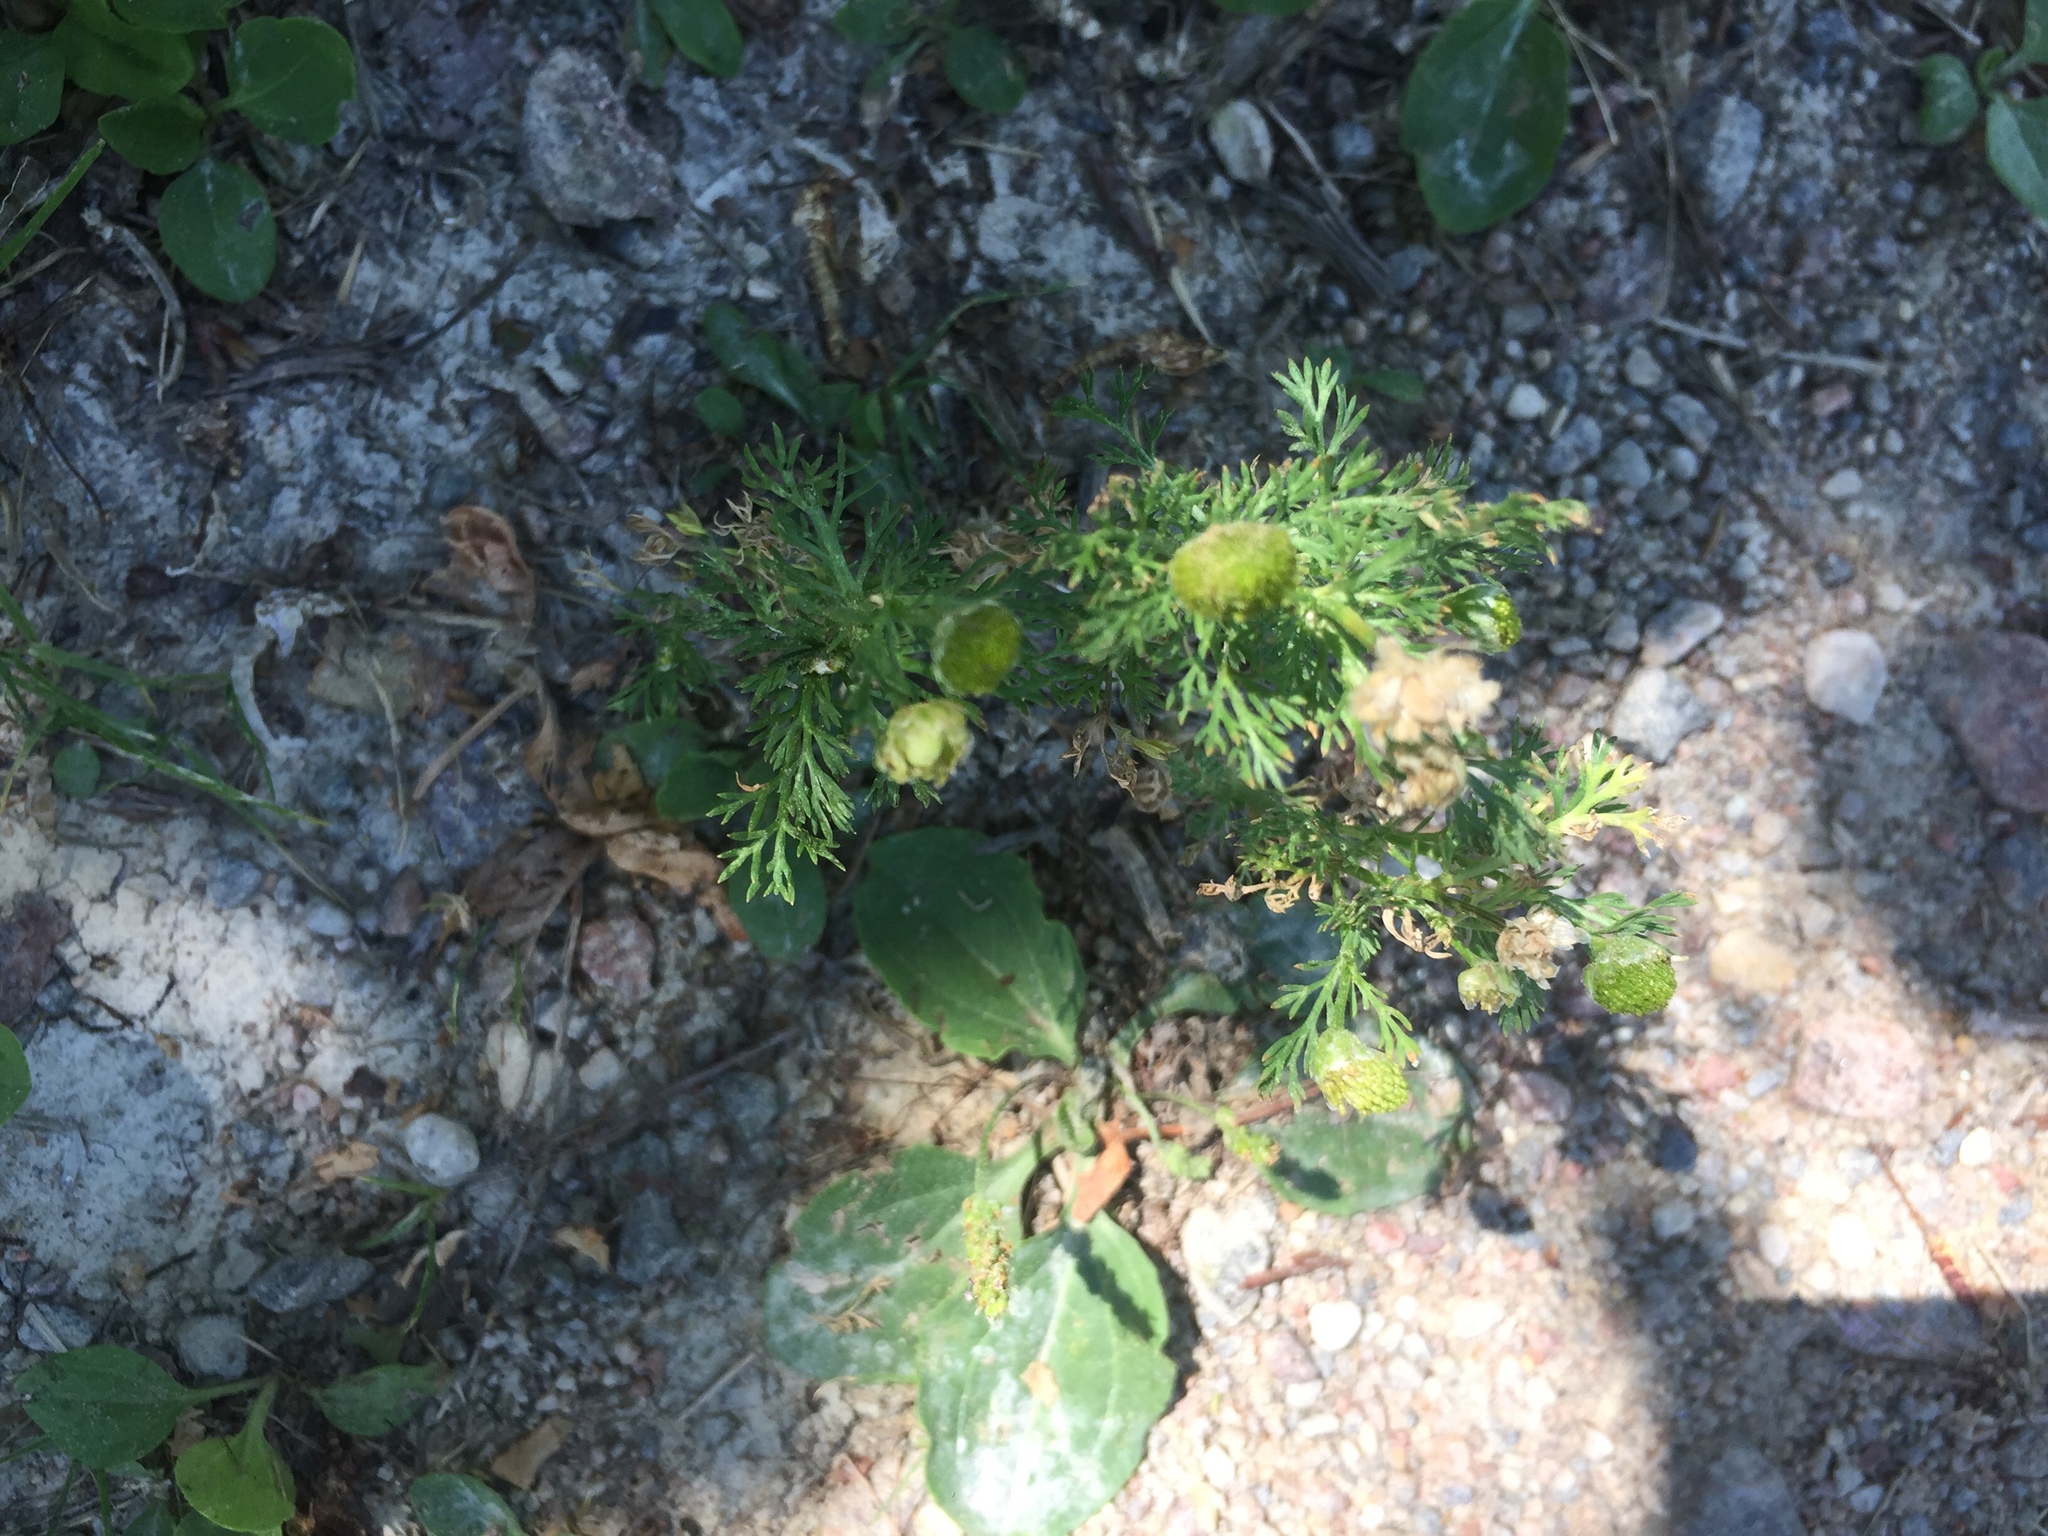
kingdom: Plantae
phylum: Tracheophyta
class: Magnoliopsida
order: Asterales
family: Asteraceae
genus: Matricaria
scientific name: Matricaria discoidea
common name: Disc mayweed
